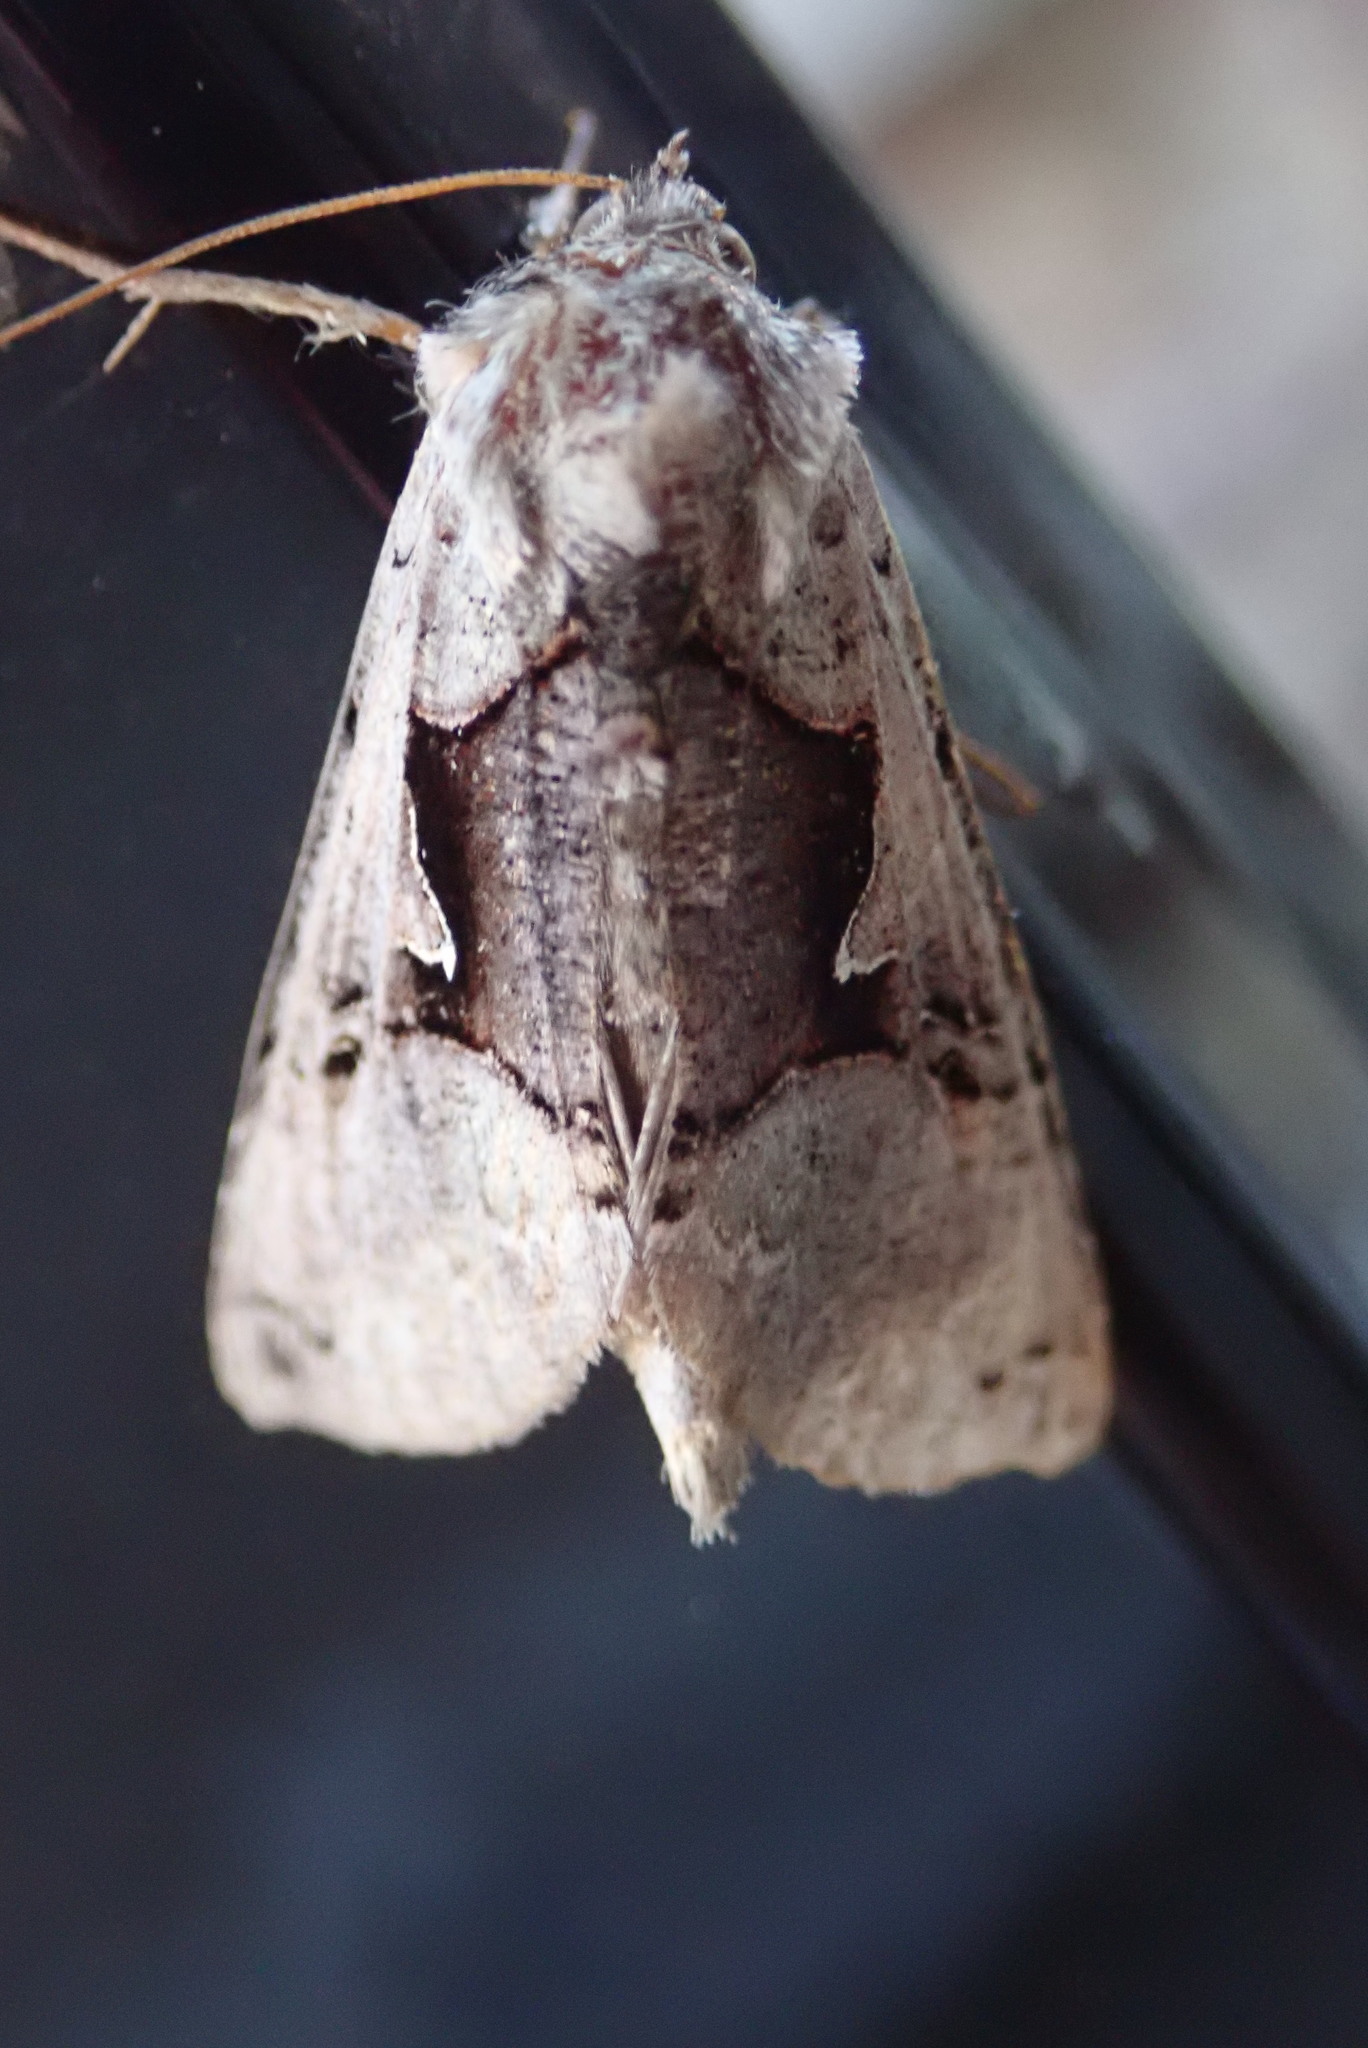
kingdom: Animalia
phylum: Arthropoda
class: Insecta
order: Lepidoptera
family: Noctuidae
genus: Autographa
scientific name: Autographa ampla
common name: Large looper moth
